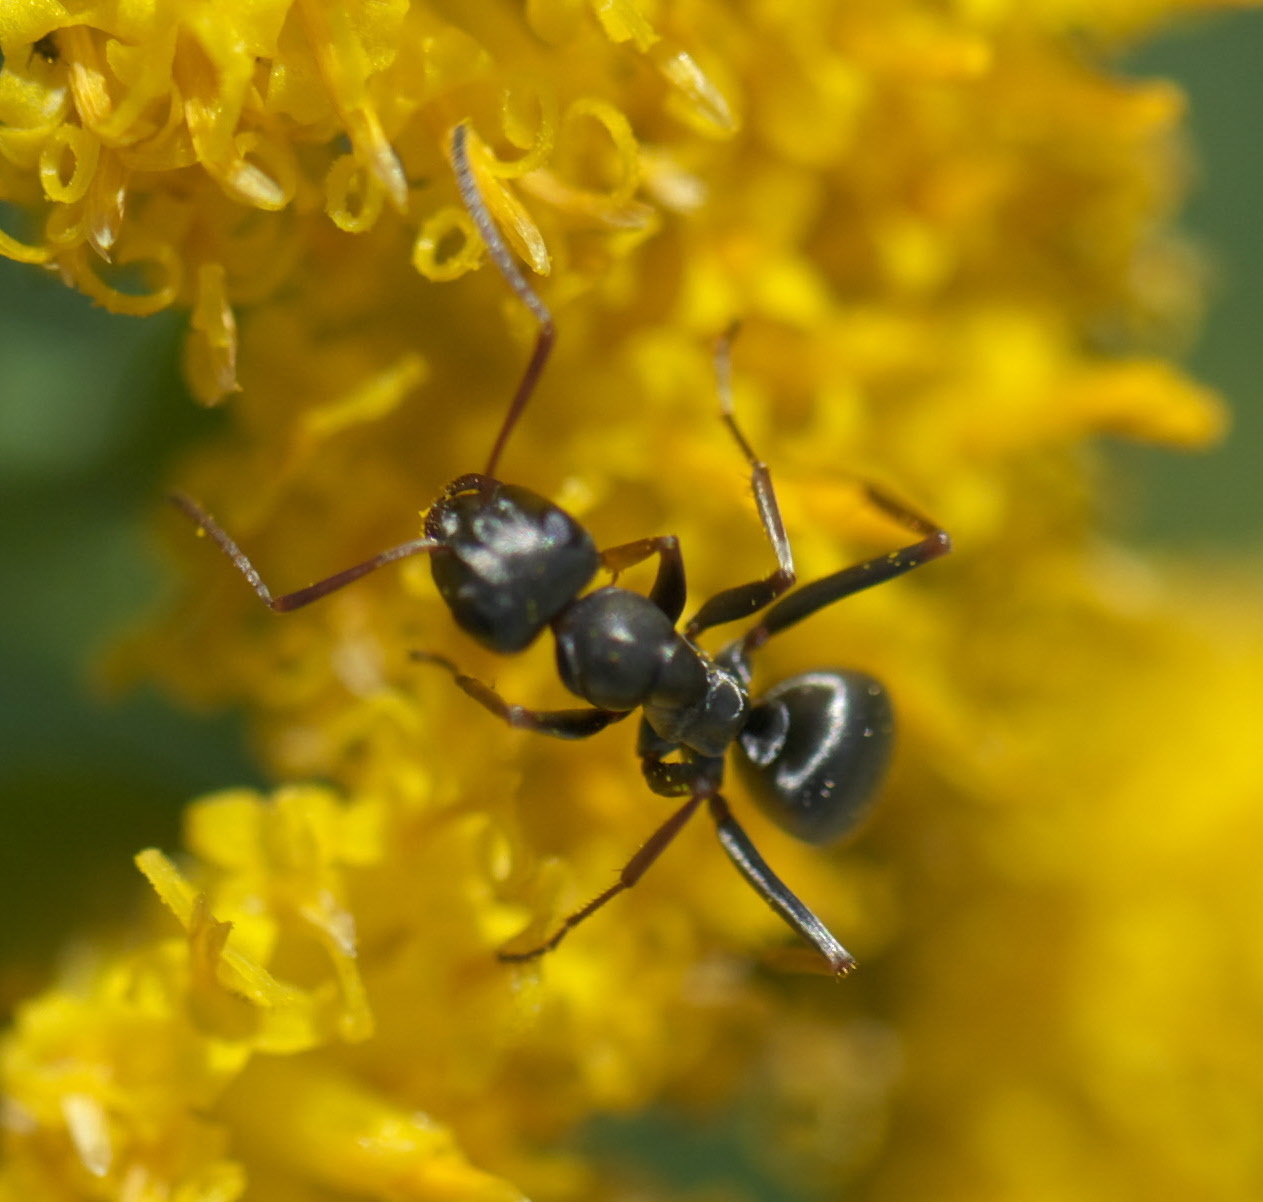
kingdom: Animalia
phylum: Arthropoda
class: Insecta
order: Hymenoptera
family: Formicidae
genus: Formica
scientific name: Formica podzolica
